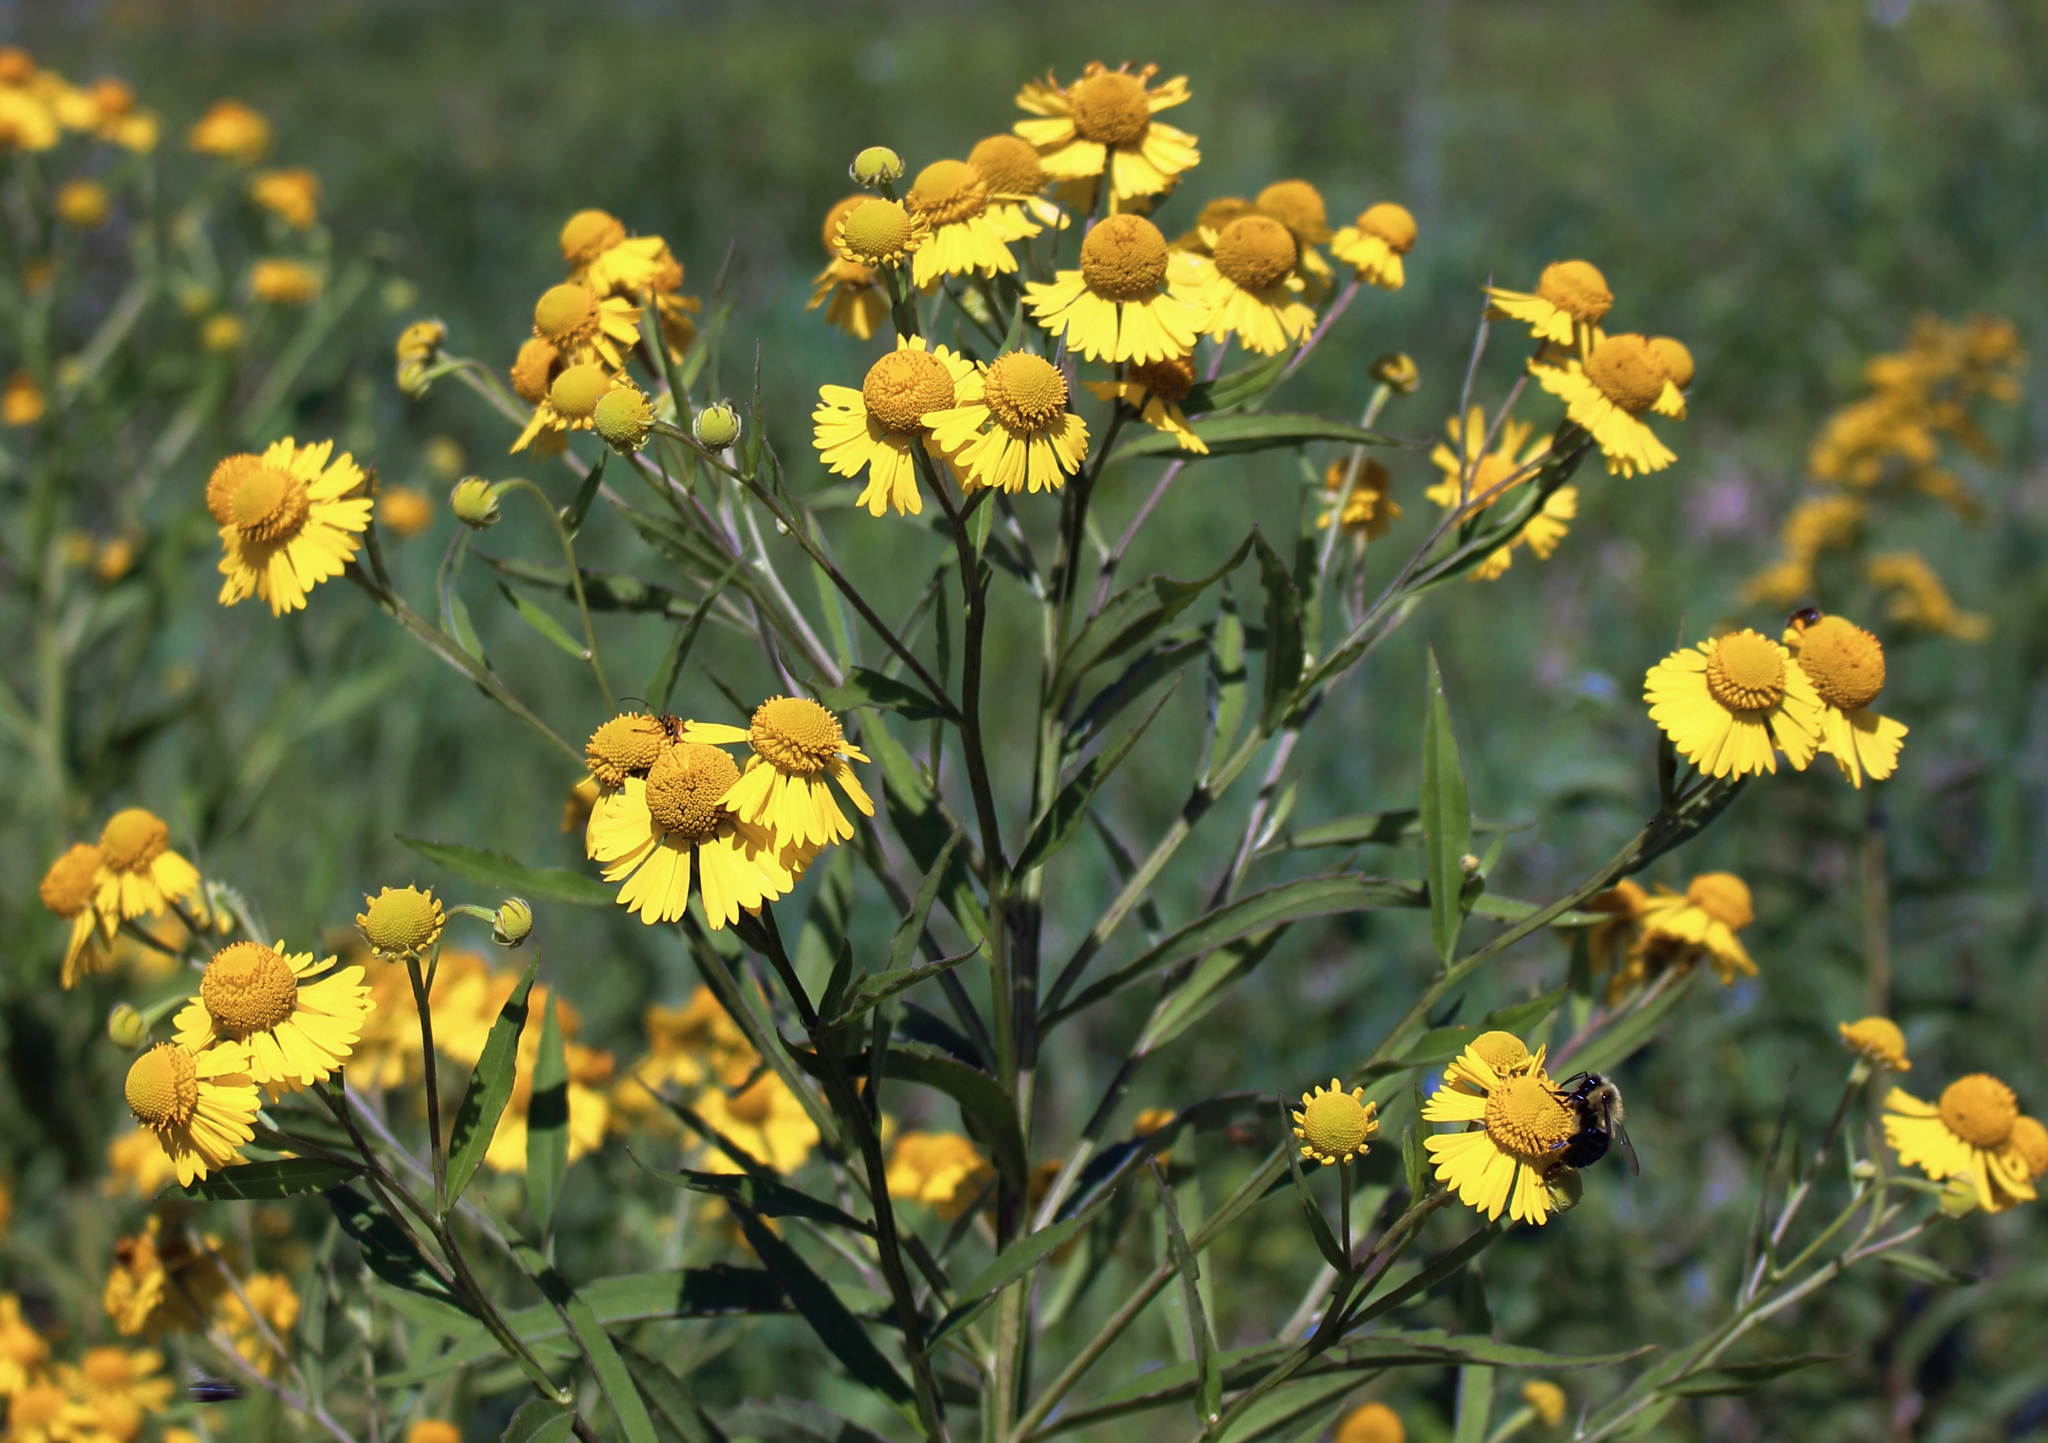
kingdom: Plantae
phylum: Tracheophyta
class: Magnoliopsida
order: Asterales
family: Asteraceae
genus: Helenium
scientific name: Helenium autumnale
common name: Sneezeweed
